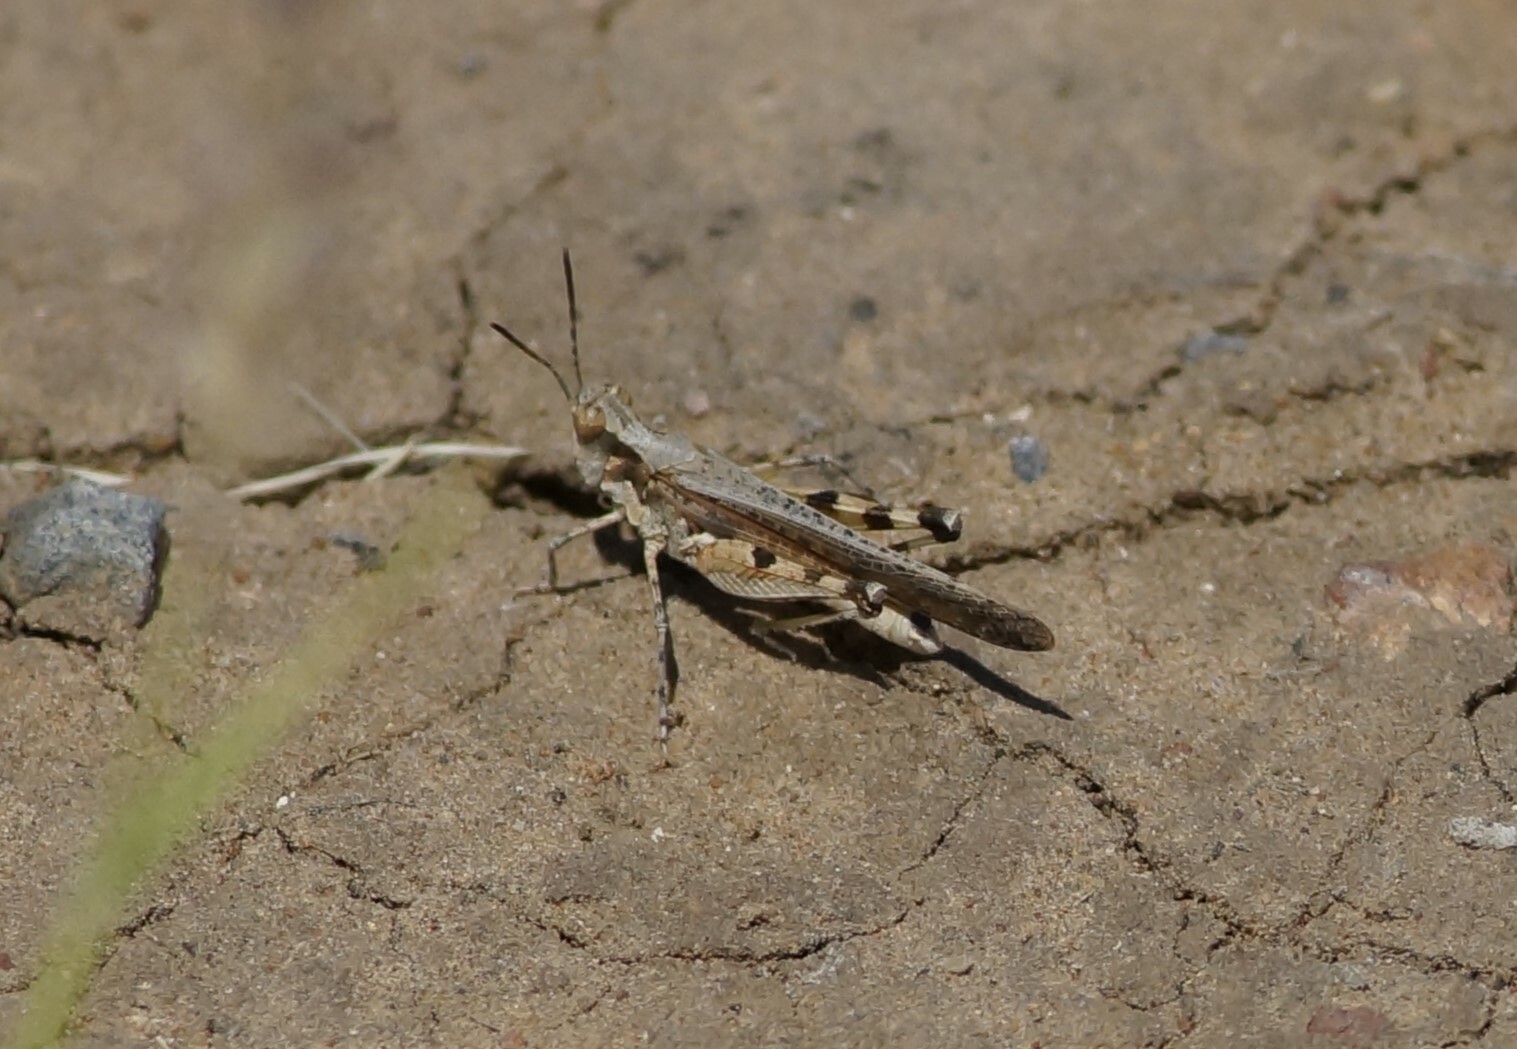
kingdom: Animalia
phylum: Arthropoda
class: Insecta
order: Orthoptera
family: Acrididae
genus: Pycnostictus
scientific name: Pycnostictus seriatus
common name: Common bandwing
